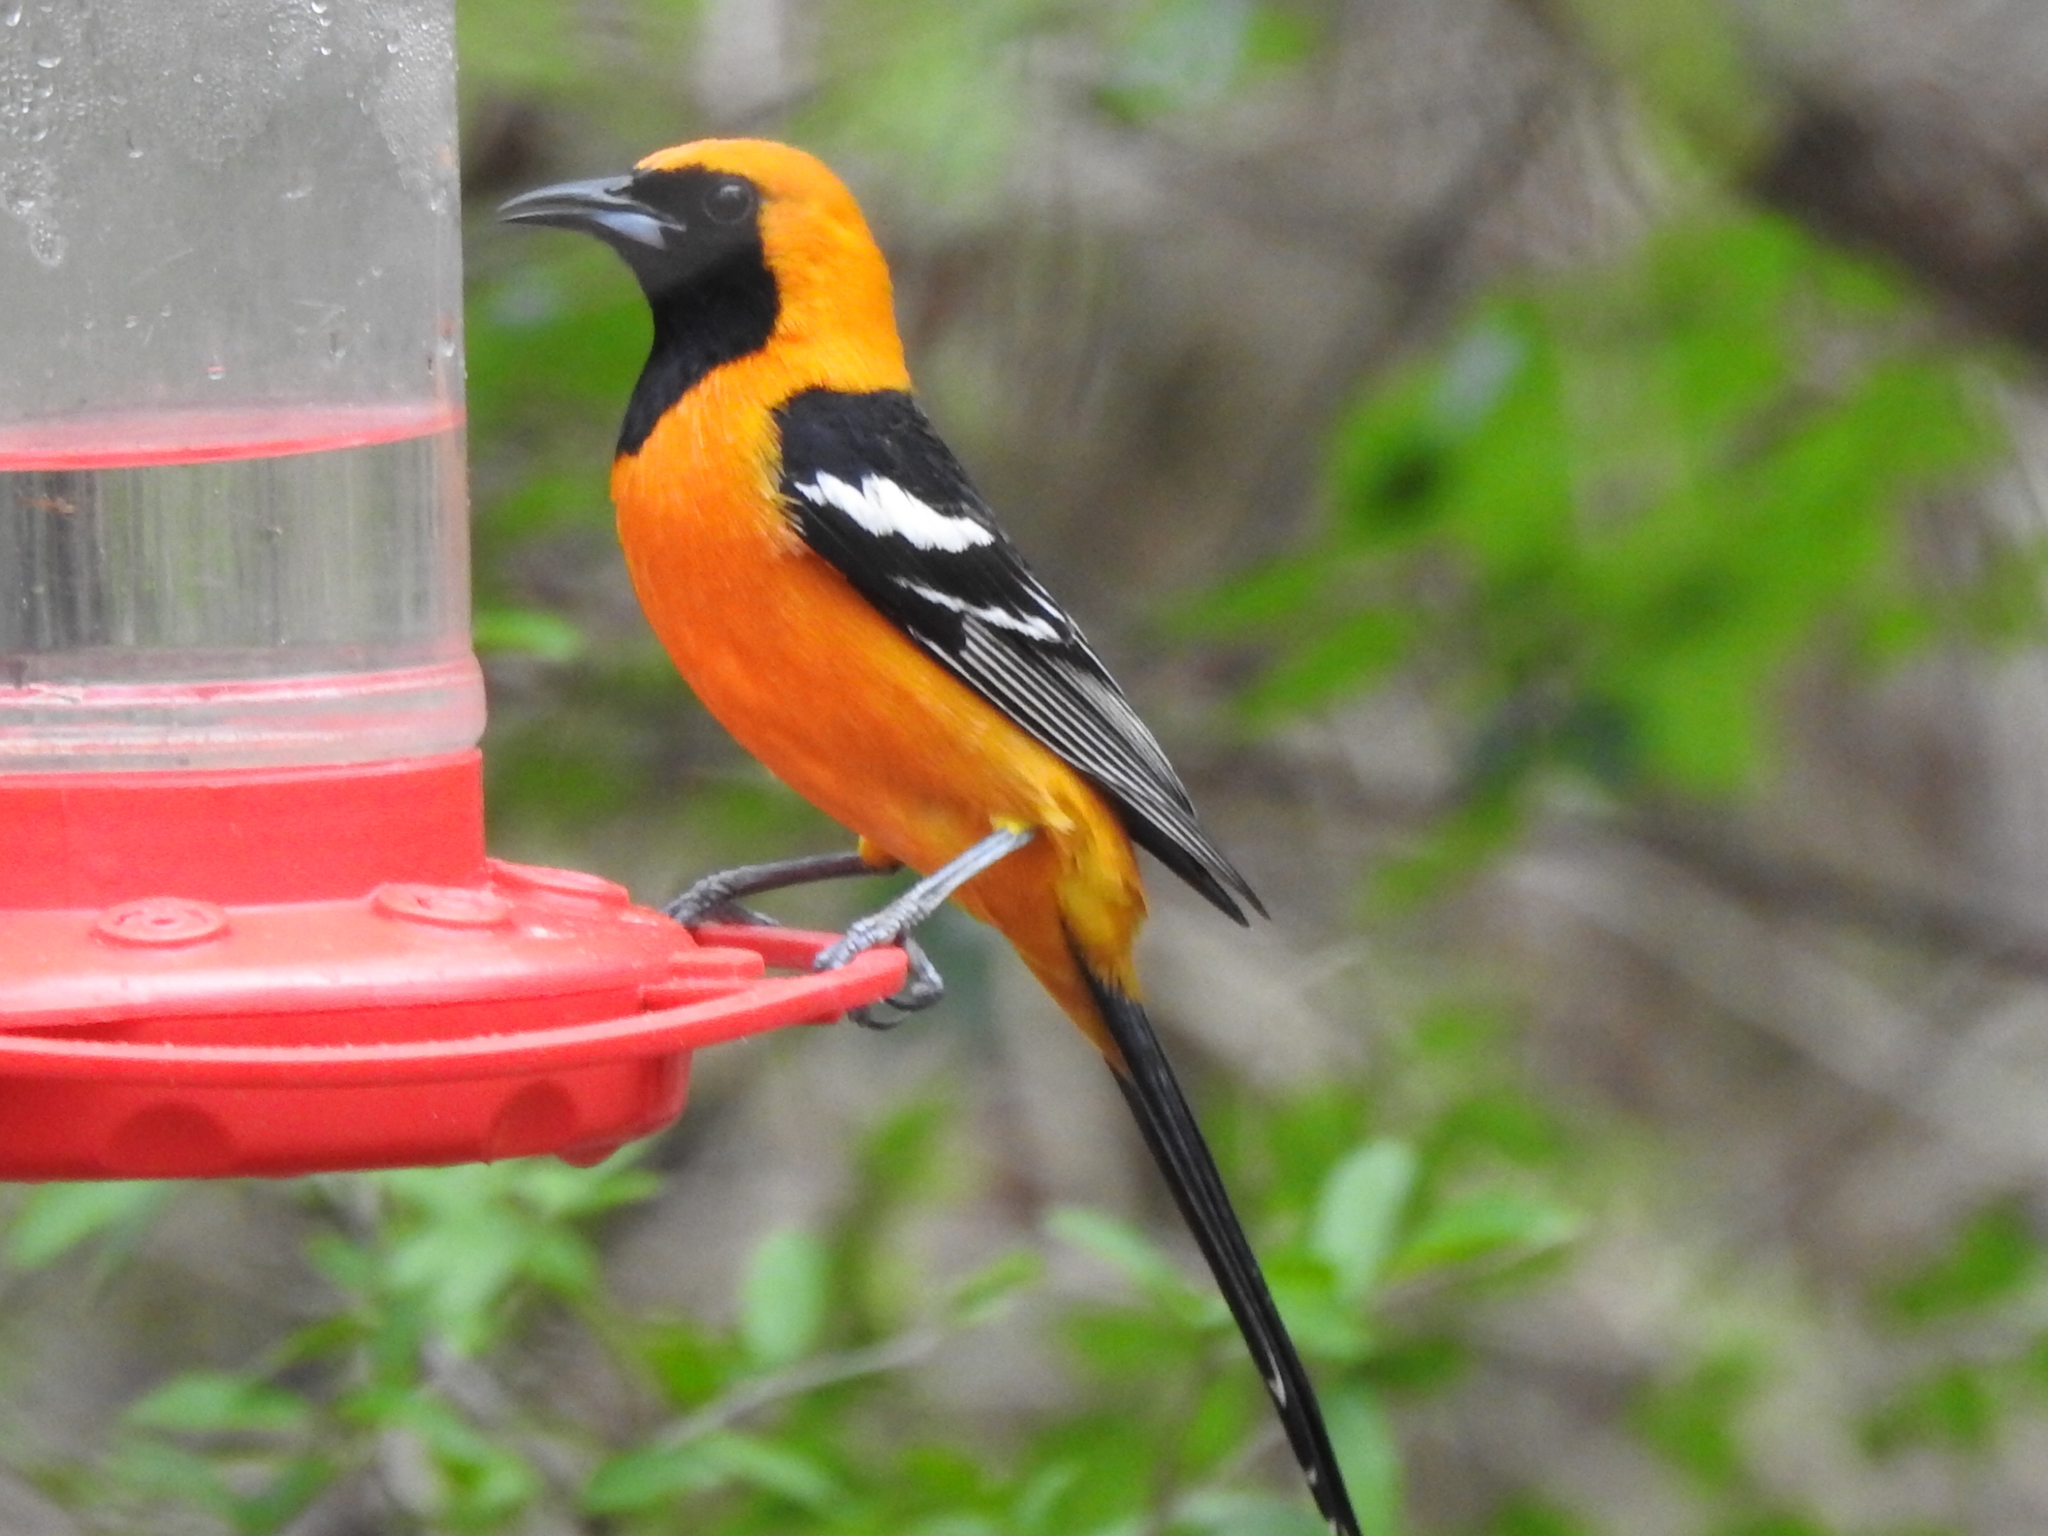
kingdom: Animalia
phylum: Chordata
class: Aves
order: Passeriformes
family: Icteridae
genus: Icterus
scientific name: Icterus cucullatus
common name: Hooded oriole
